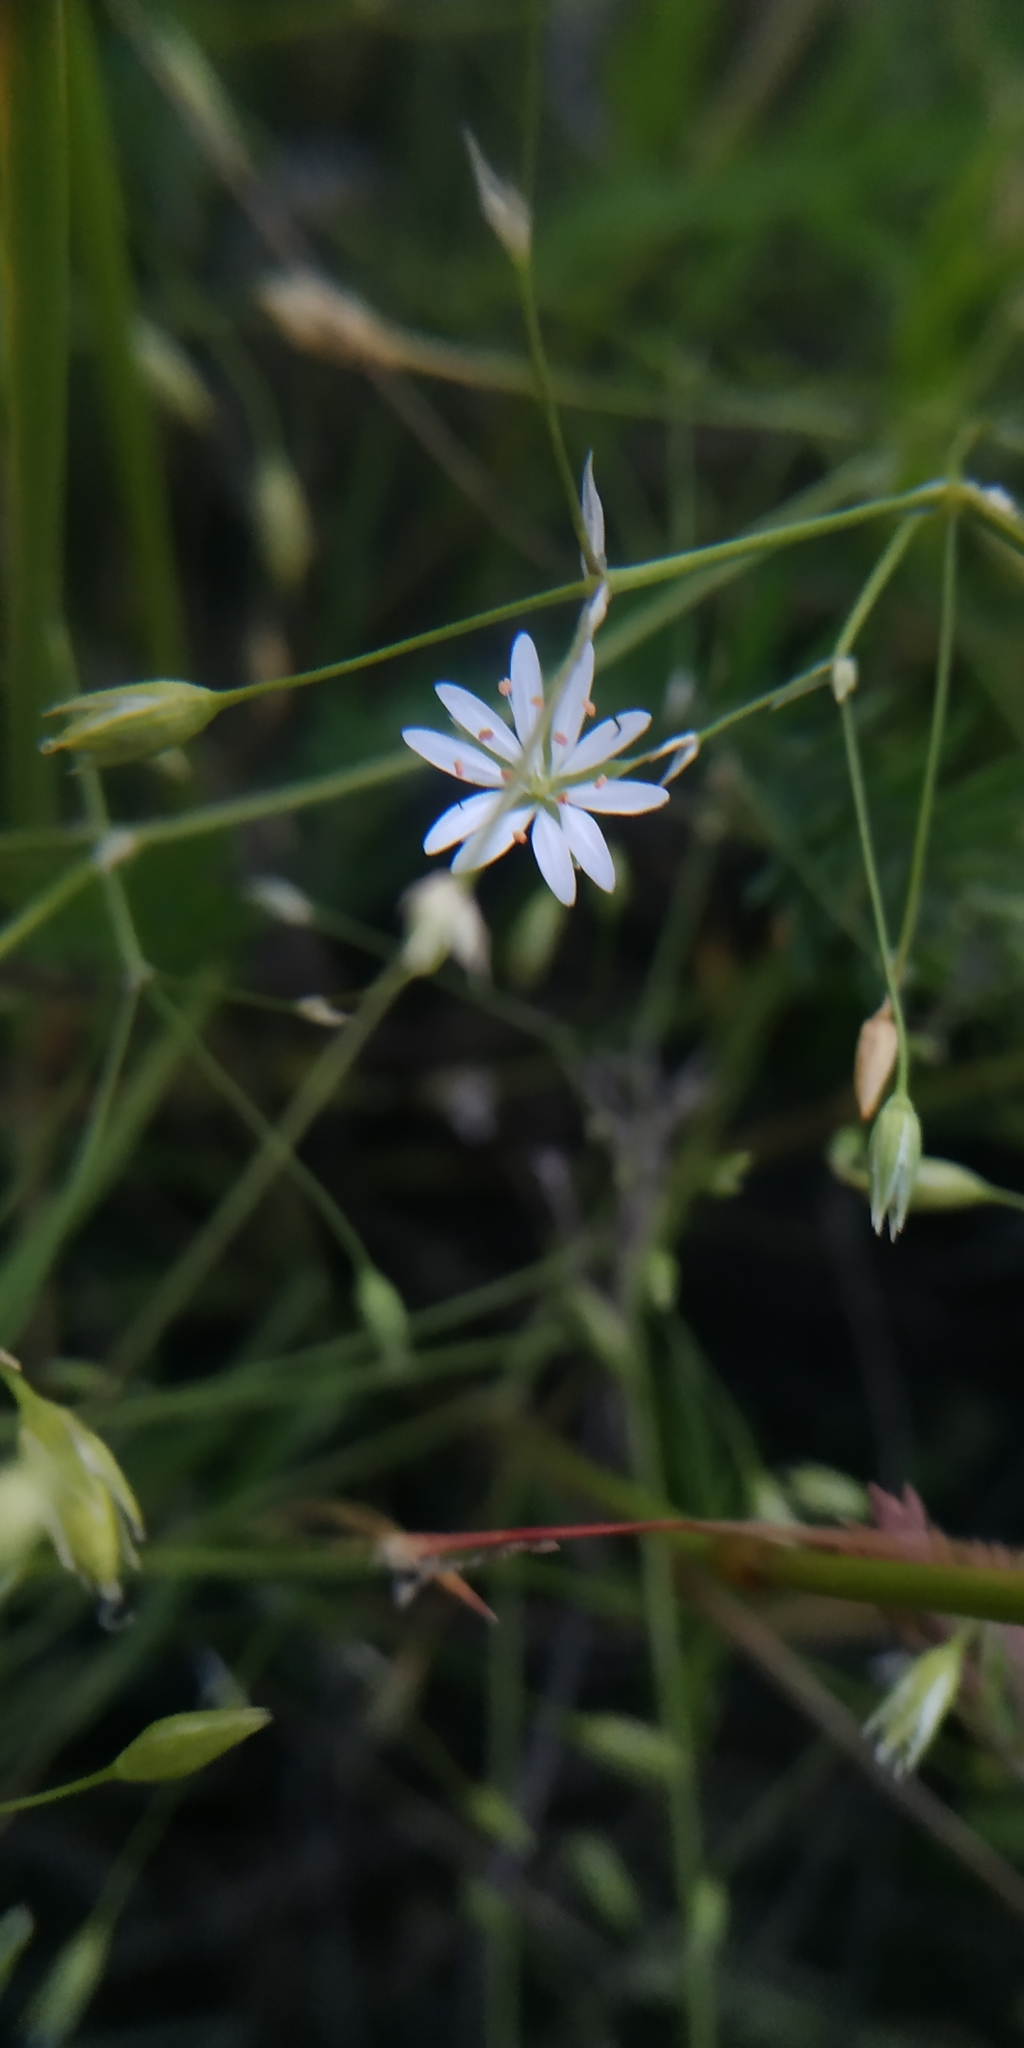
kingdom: Plantae
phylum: Tracheophyta
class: Magnoliopsida
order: Caryophyllales
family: Caryophyllaceae
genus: Stellaria
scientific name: Stellaria graminea
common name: Grass-like starwort
